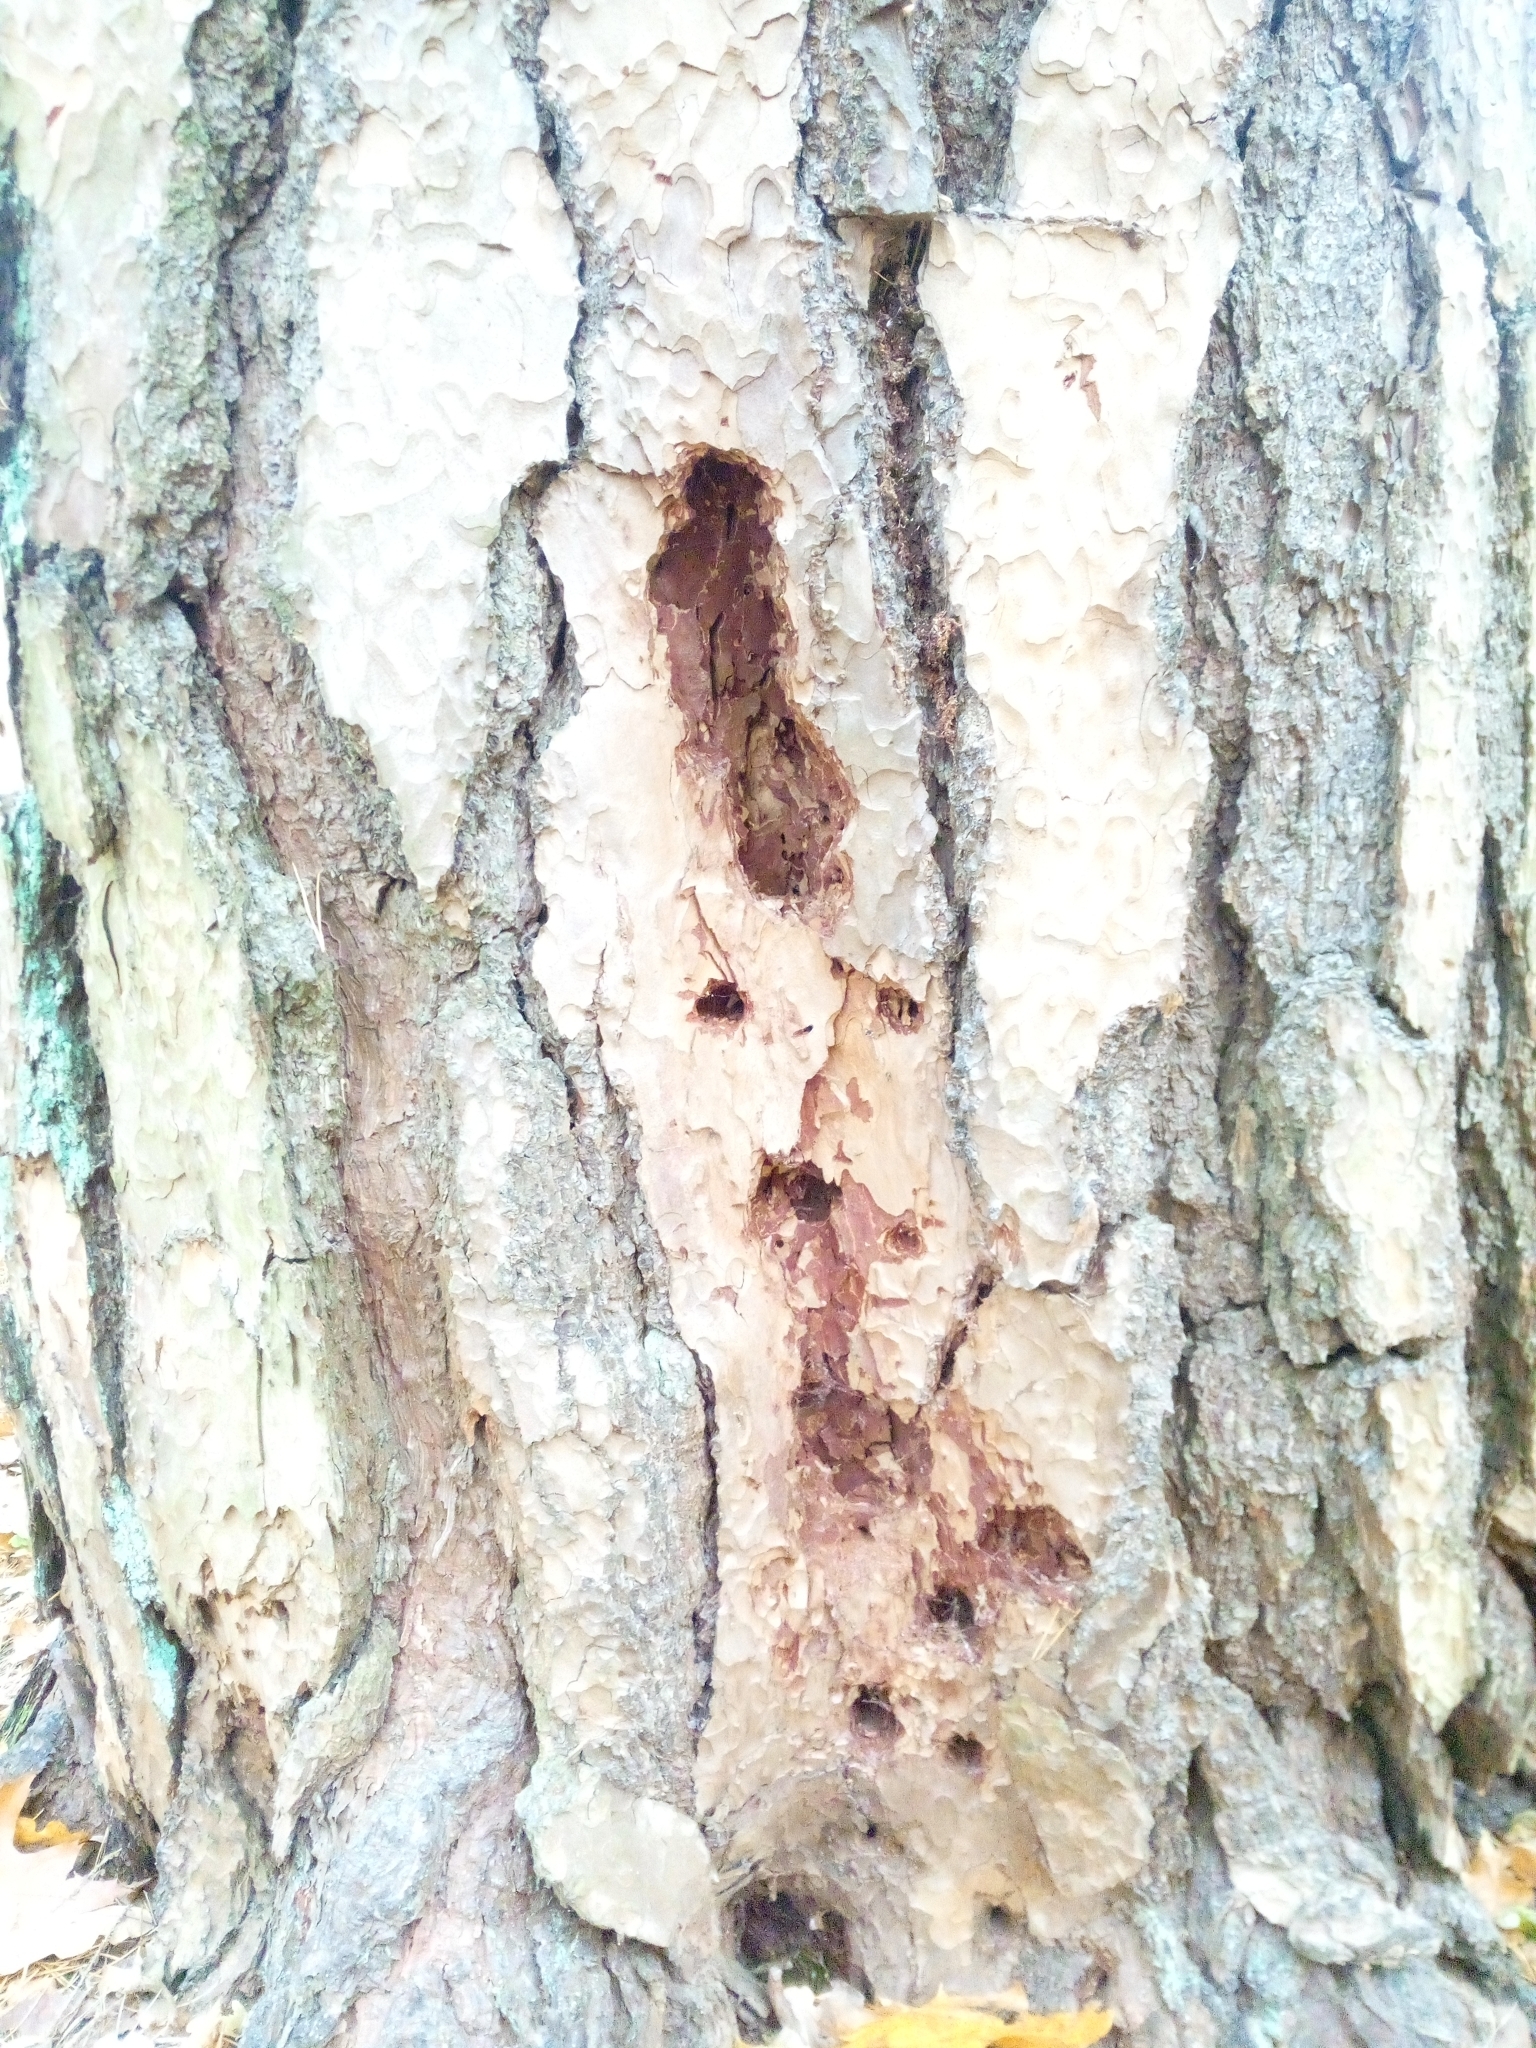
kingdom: Animalia
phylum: Chordata
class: Aves
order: Piciformes
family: Picidae
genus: Dryocopus
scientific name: Dryocopus martius
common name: Black woodpecker
